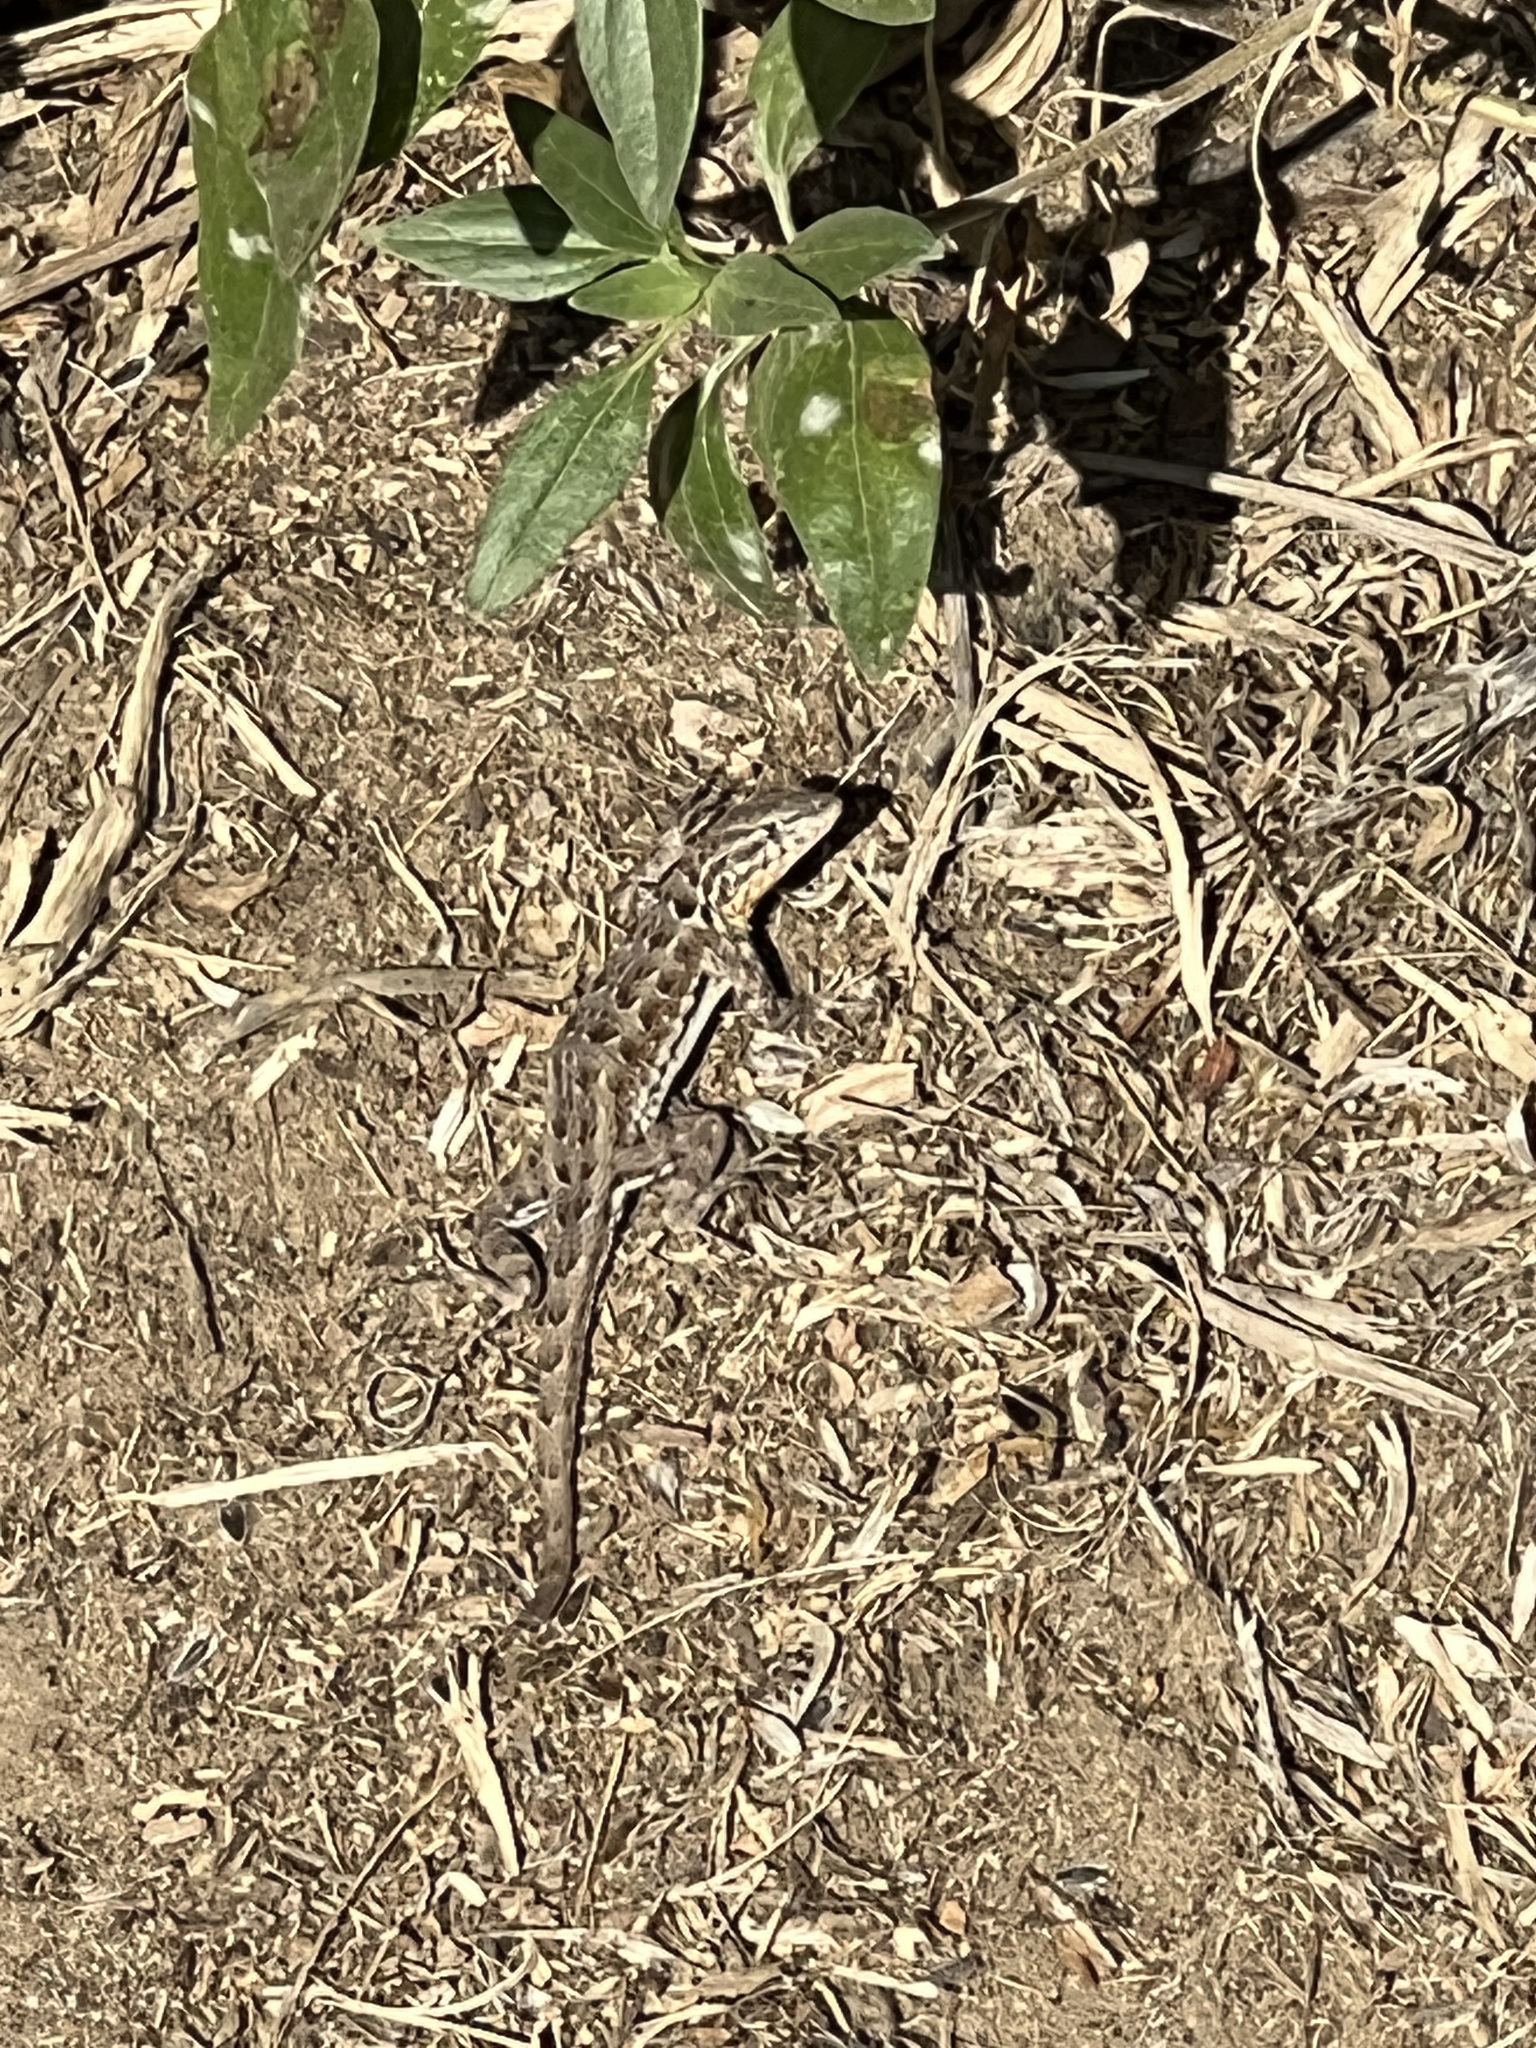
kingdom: Animalia
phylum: Chordata
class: Squamata
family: Phrynosomatidae
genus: Uta
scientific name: Uta stansburiana
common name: Side-blotched lizard
